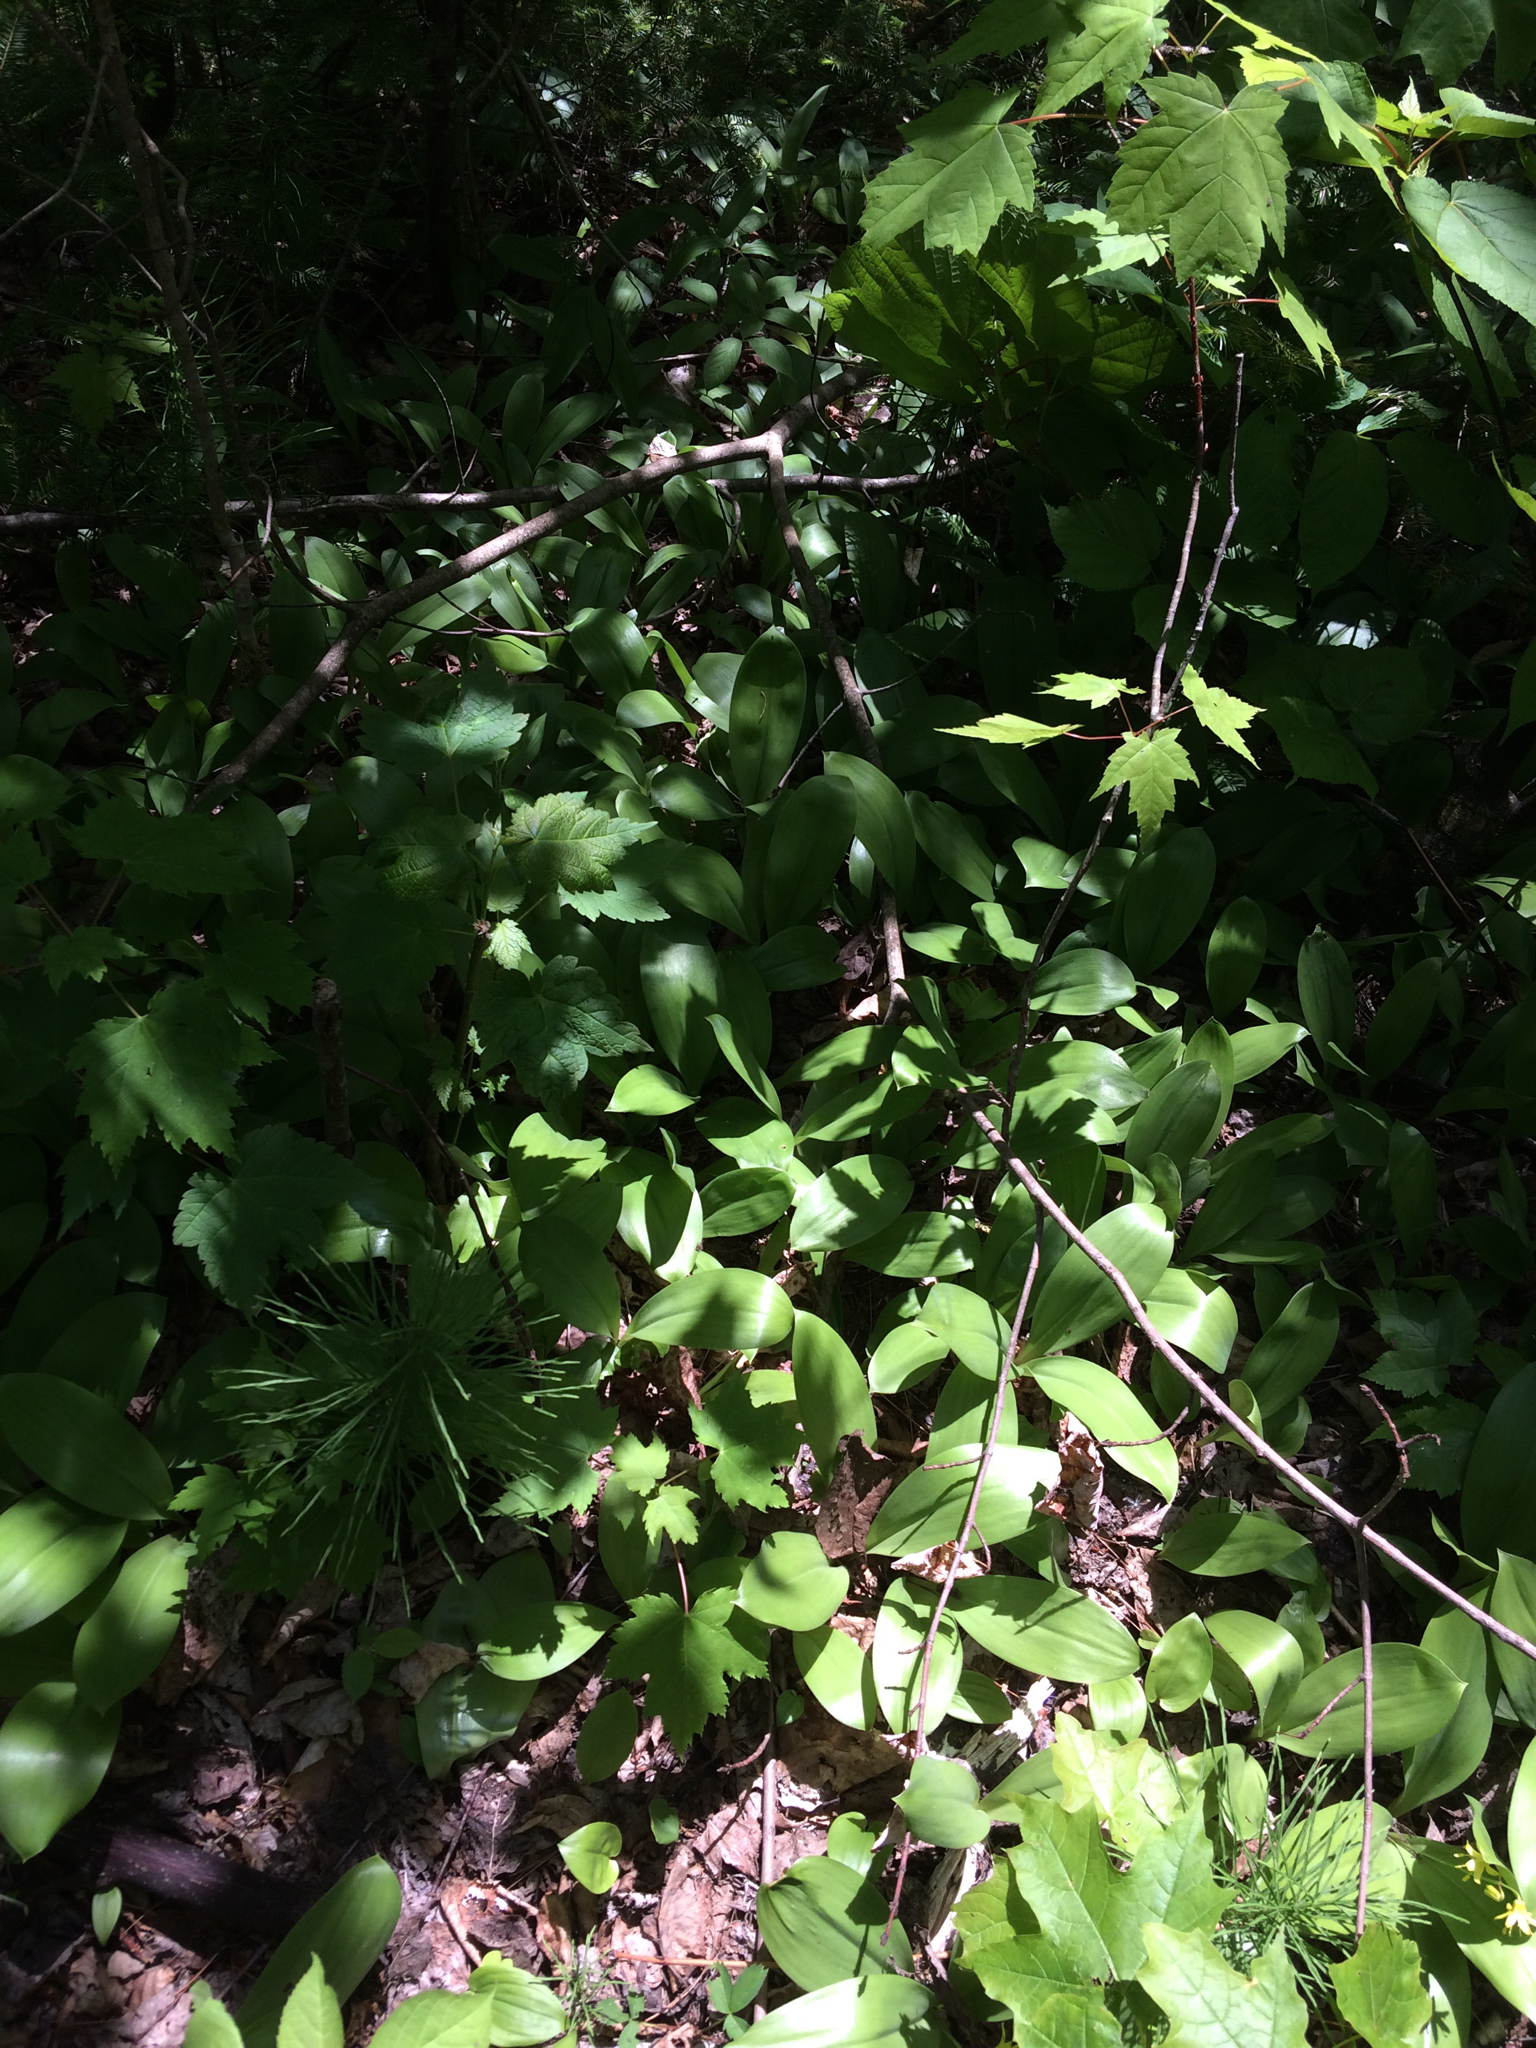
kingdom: Plantae
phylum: Tracheophyta
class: Liliopsida
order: Liliales
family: Liliaceae
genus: Clintonia
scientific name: Clintonia borealis
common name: Yellow clintonia
